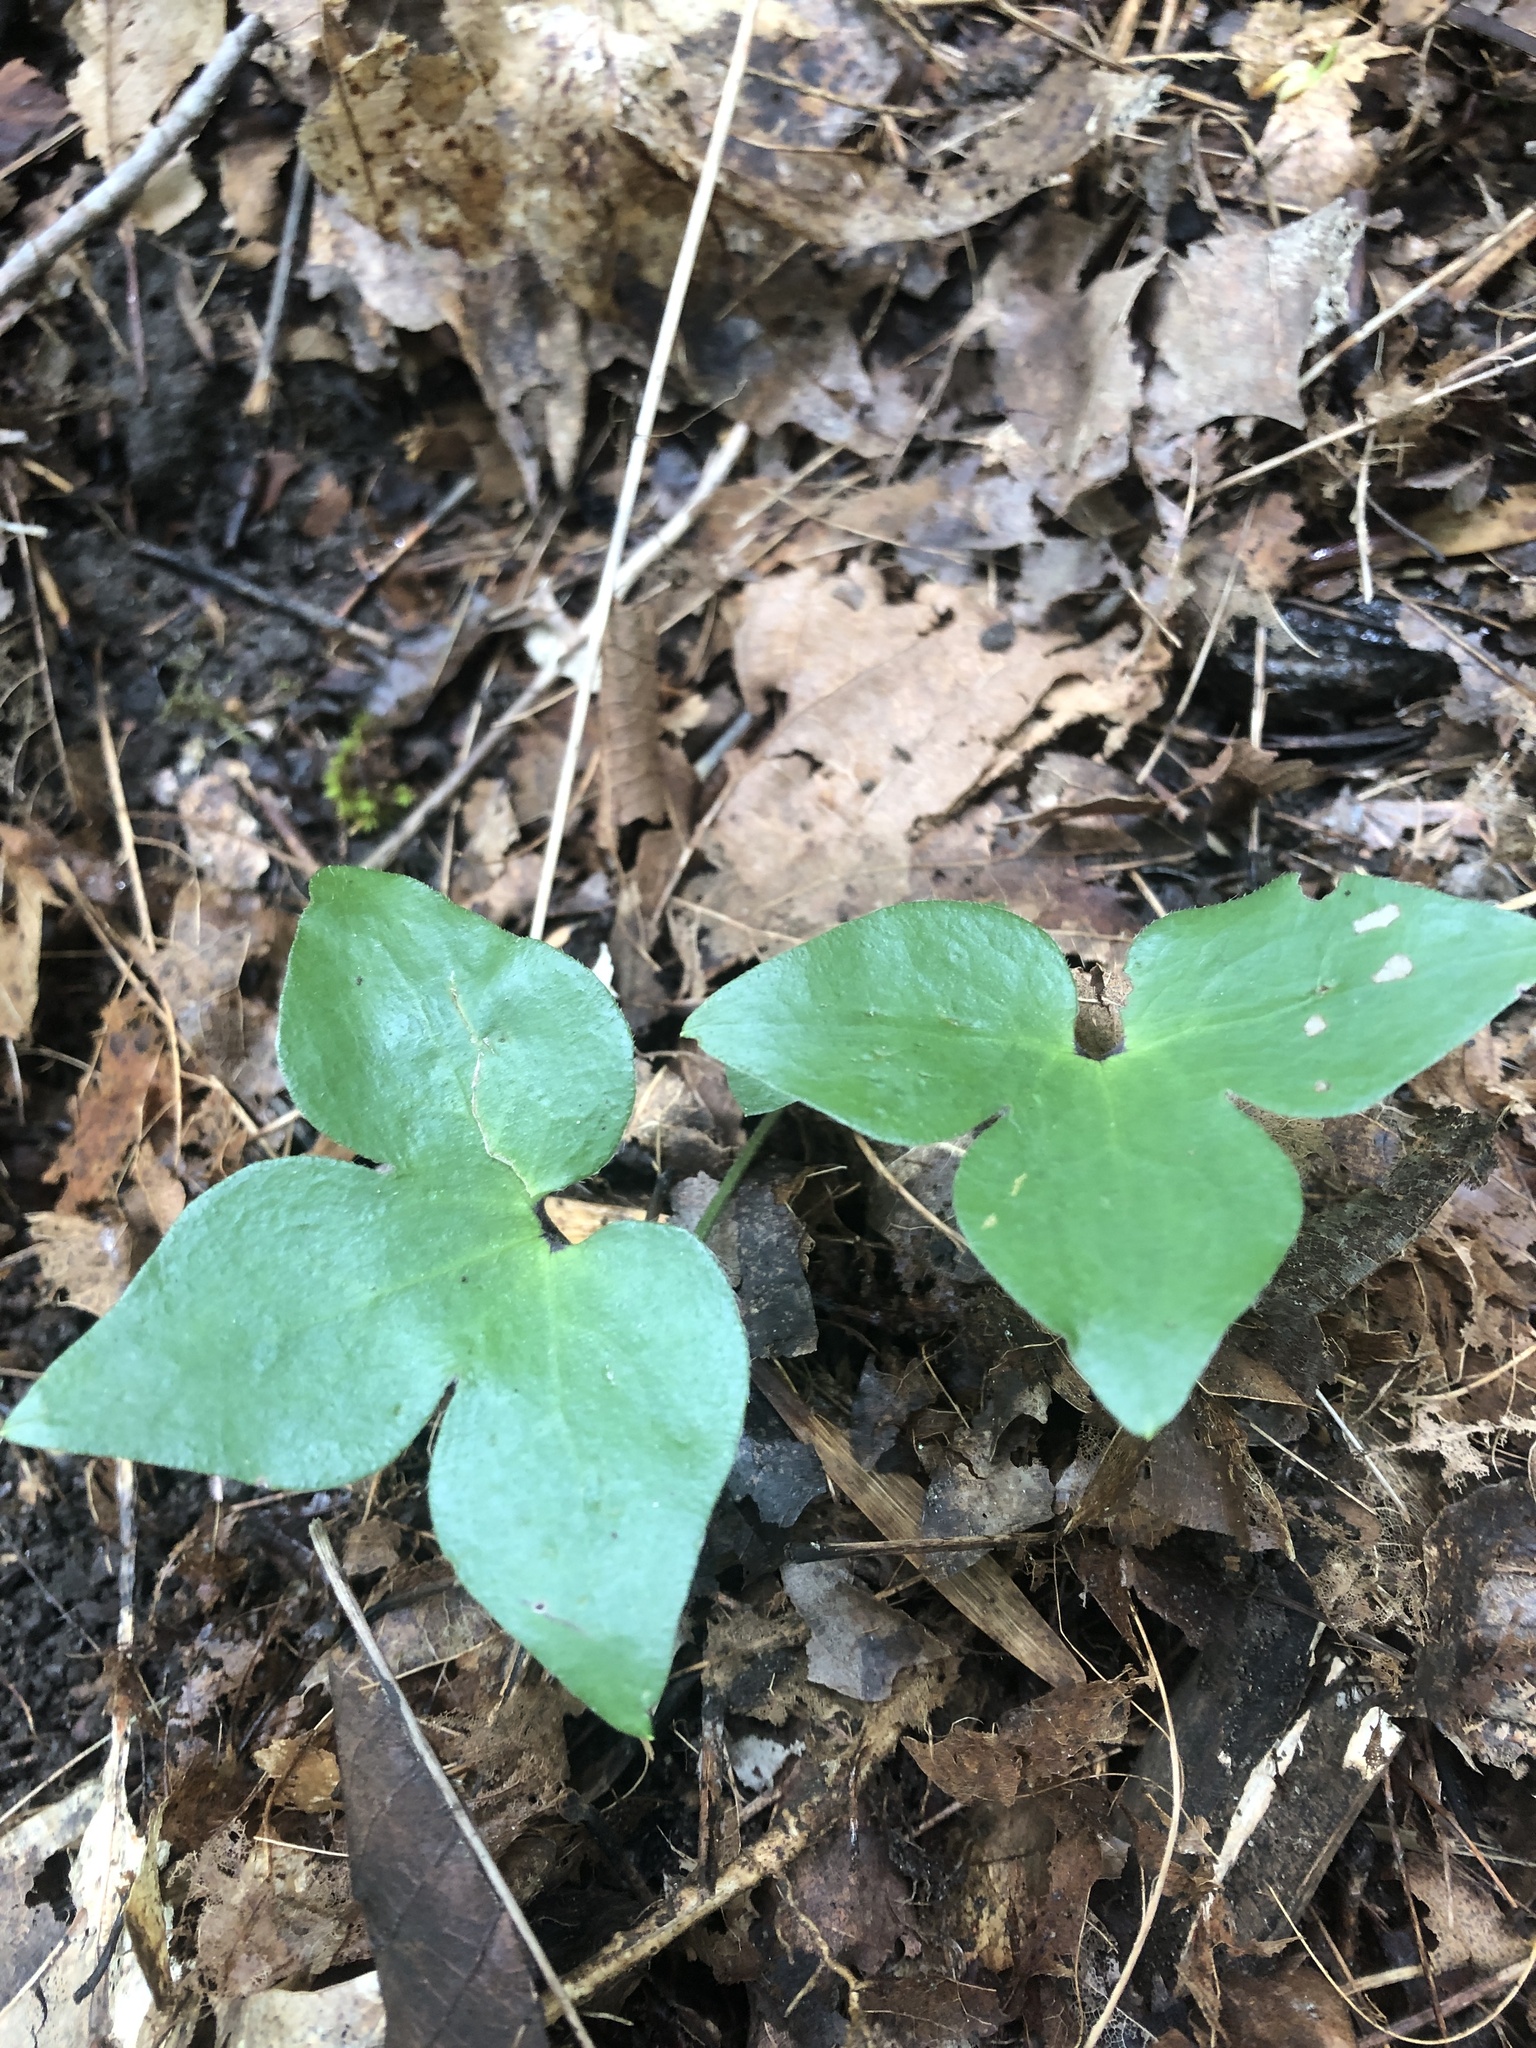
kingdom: Plantae
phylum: Tracheophyta
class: Magnoliopsida
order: Ranunculales
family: Ranunculaceae
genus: Hepatica
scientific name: Hepatica acutiloba
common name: Sharp-lobed hepatica
